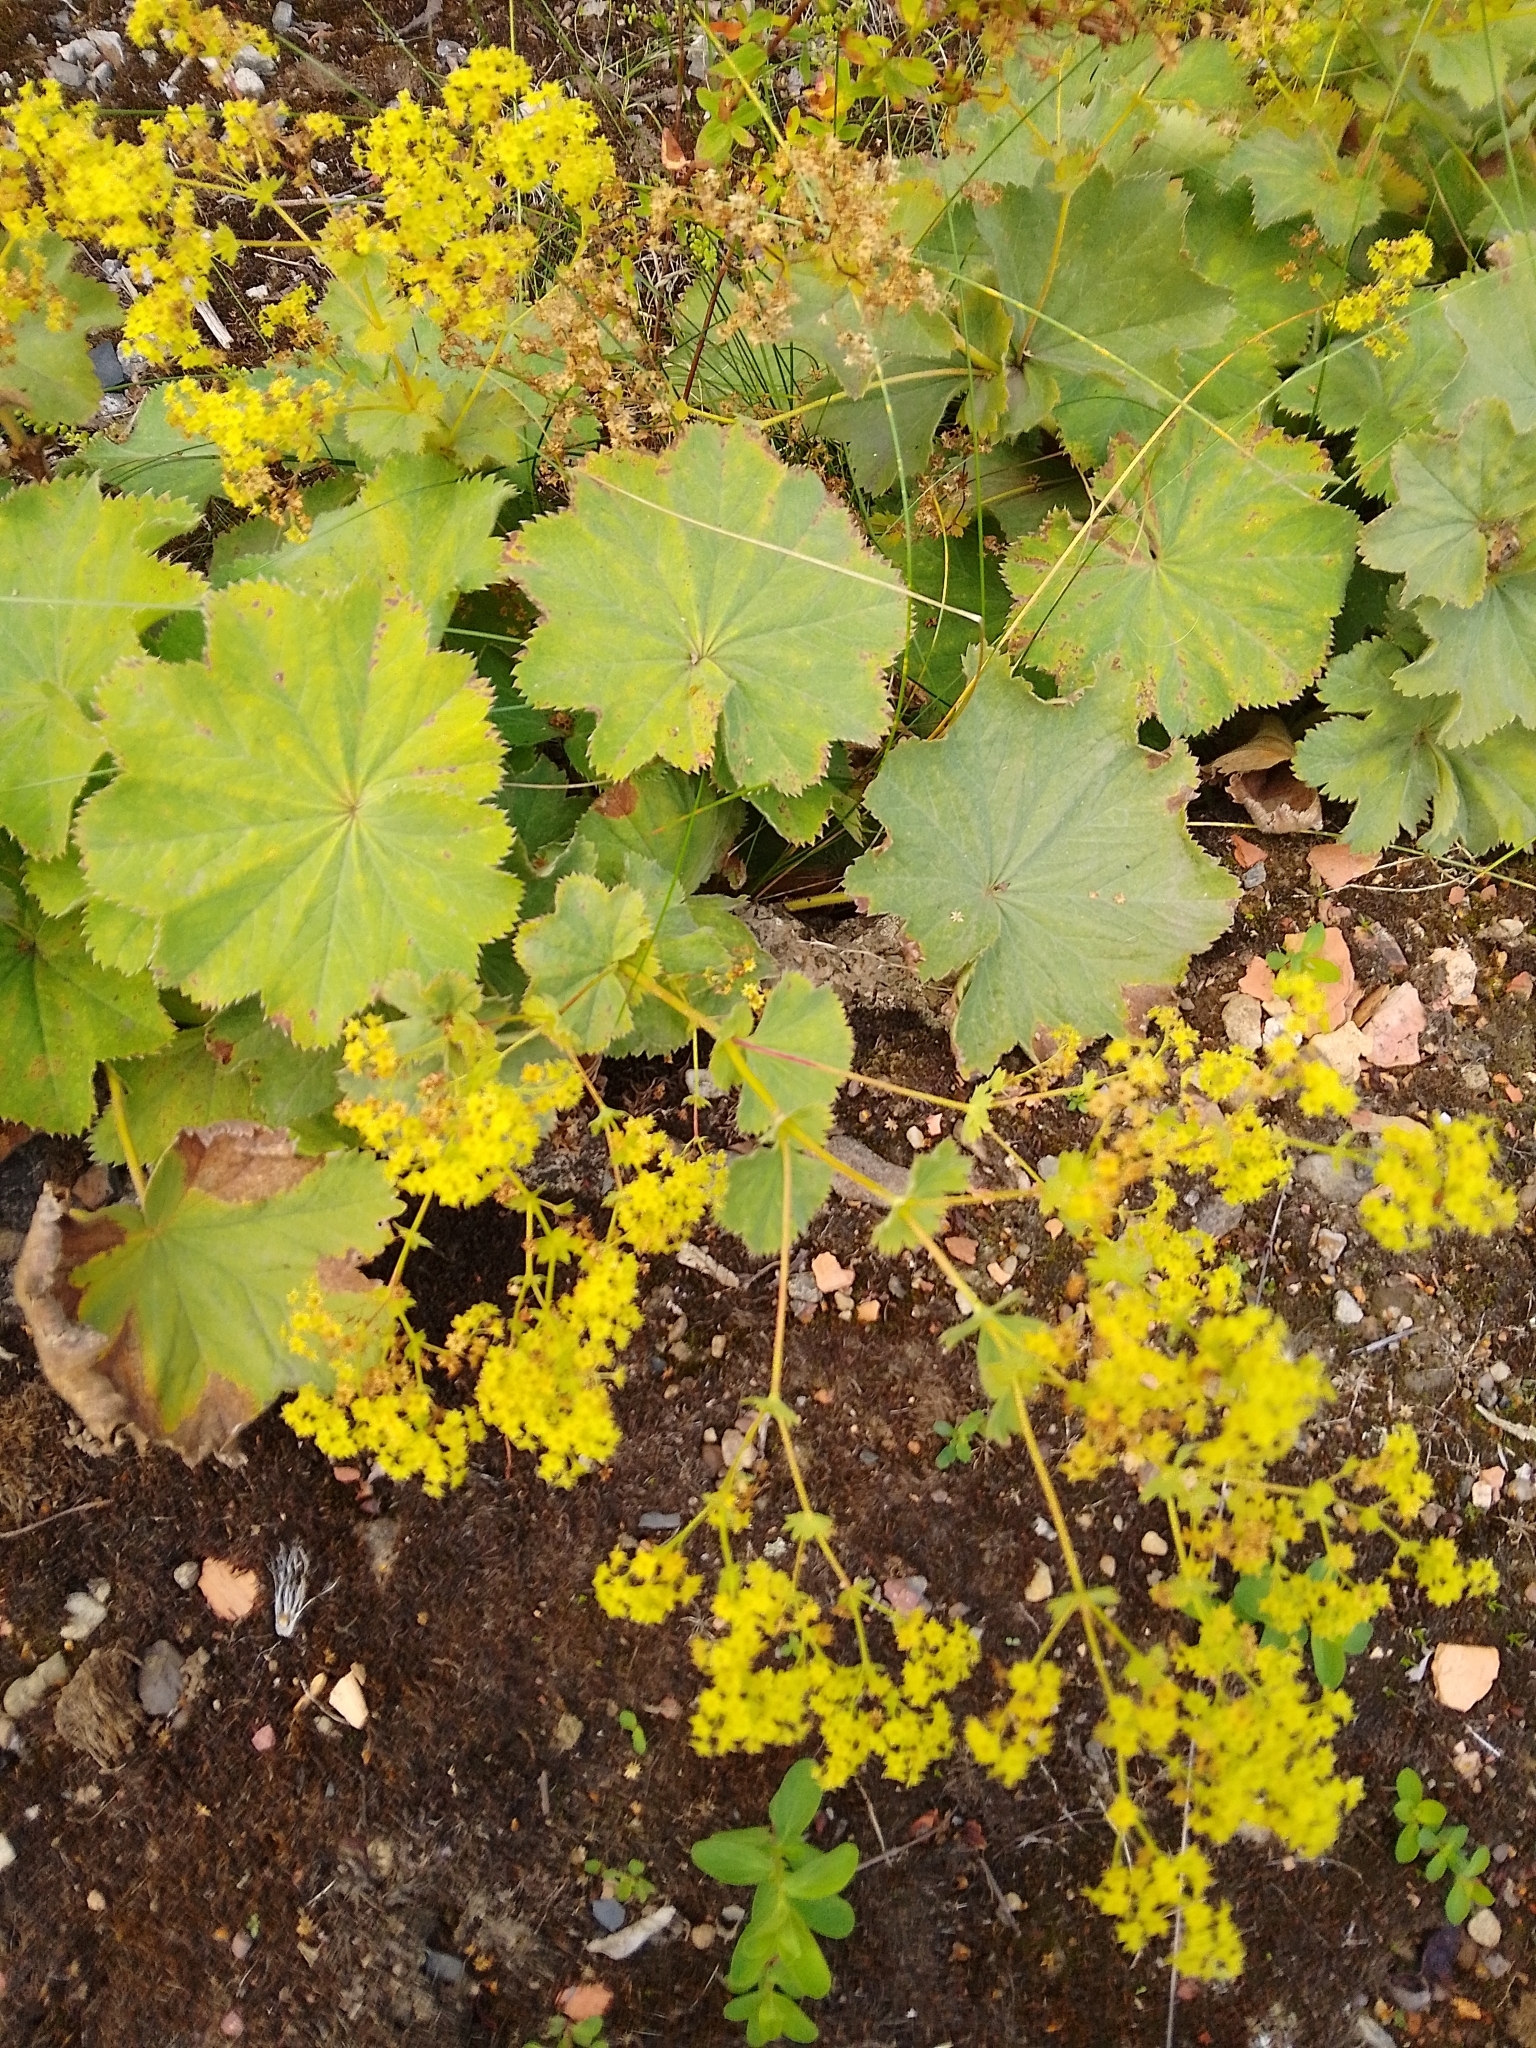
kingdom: Plantae
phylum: Tracheophyta
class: Magnoliopsida
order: Rosales
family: Rosaceae
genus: Alchemilla
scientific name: Alchemilla mollis
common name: Lady's-mantle
